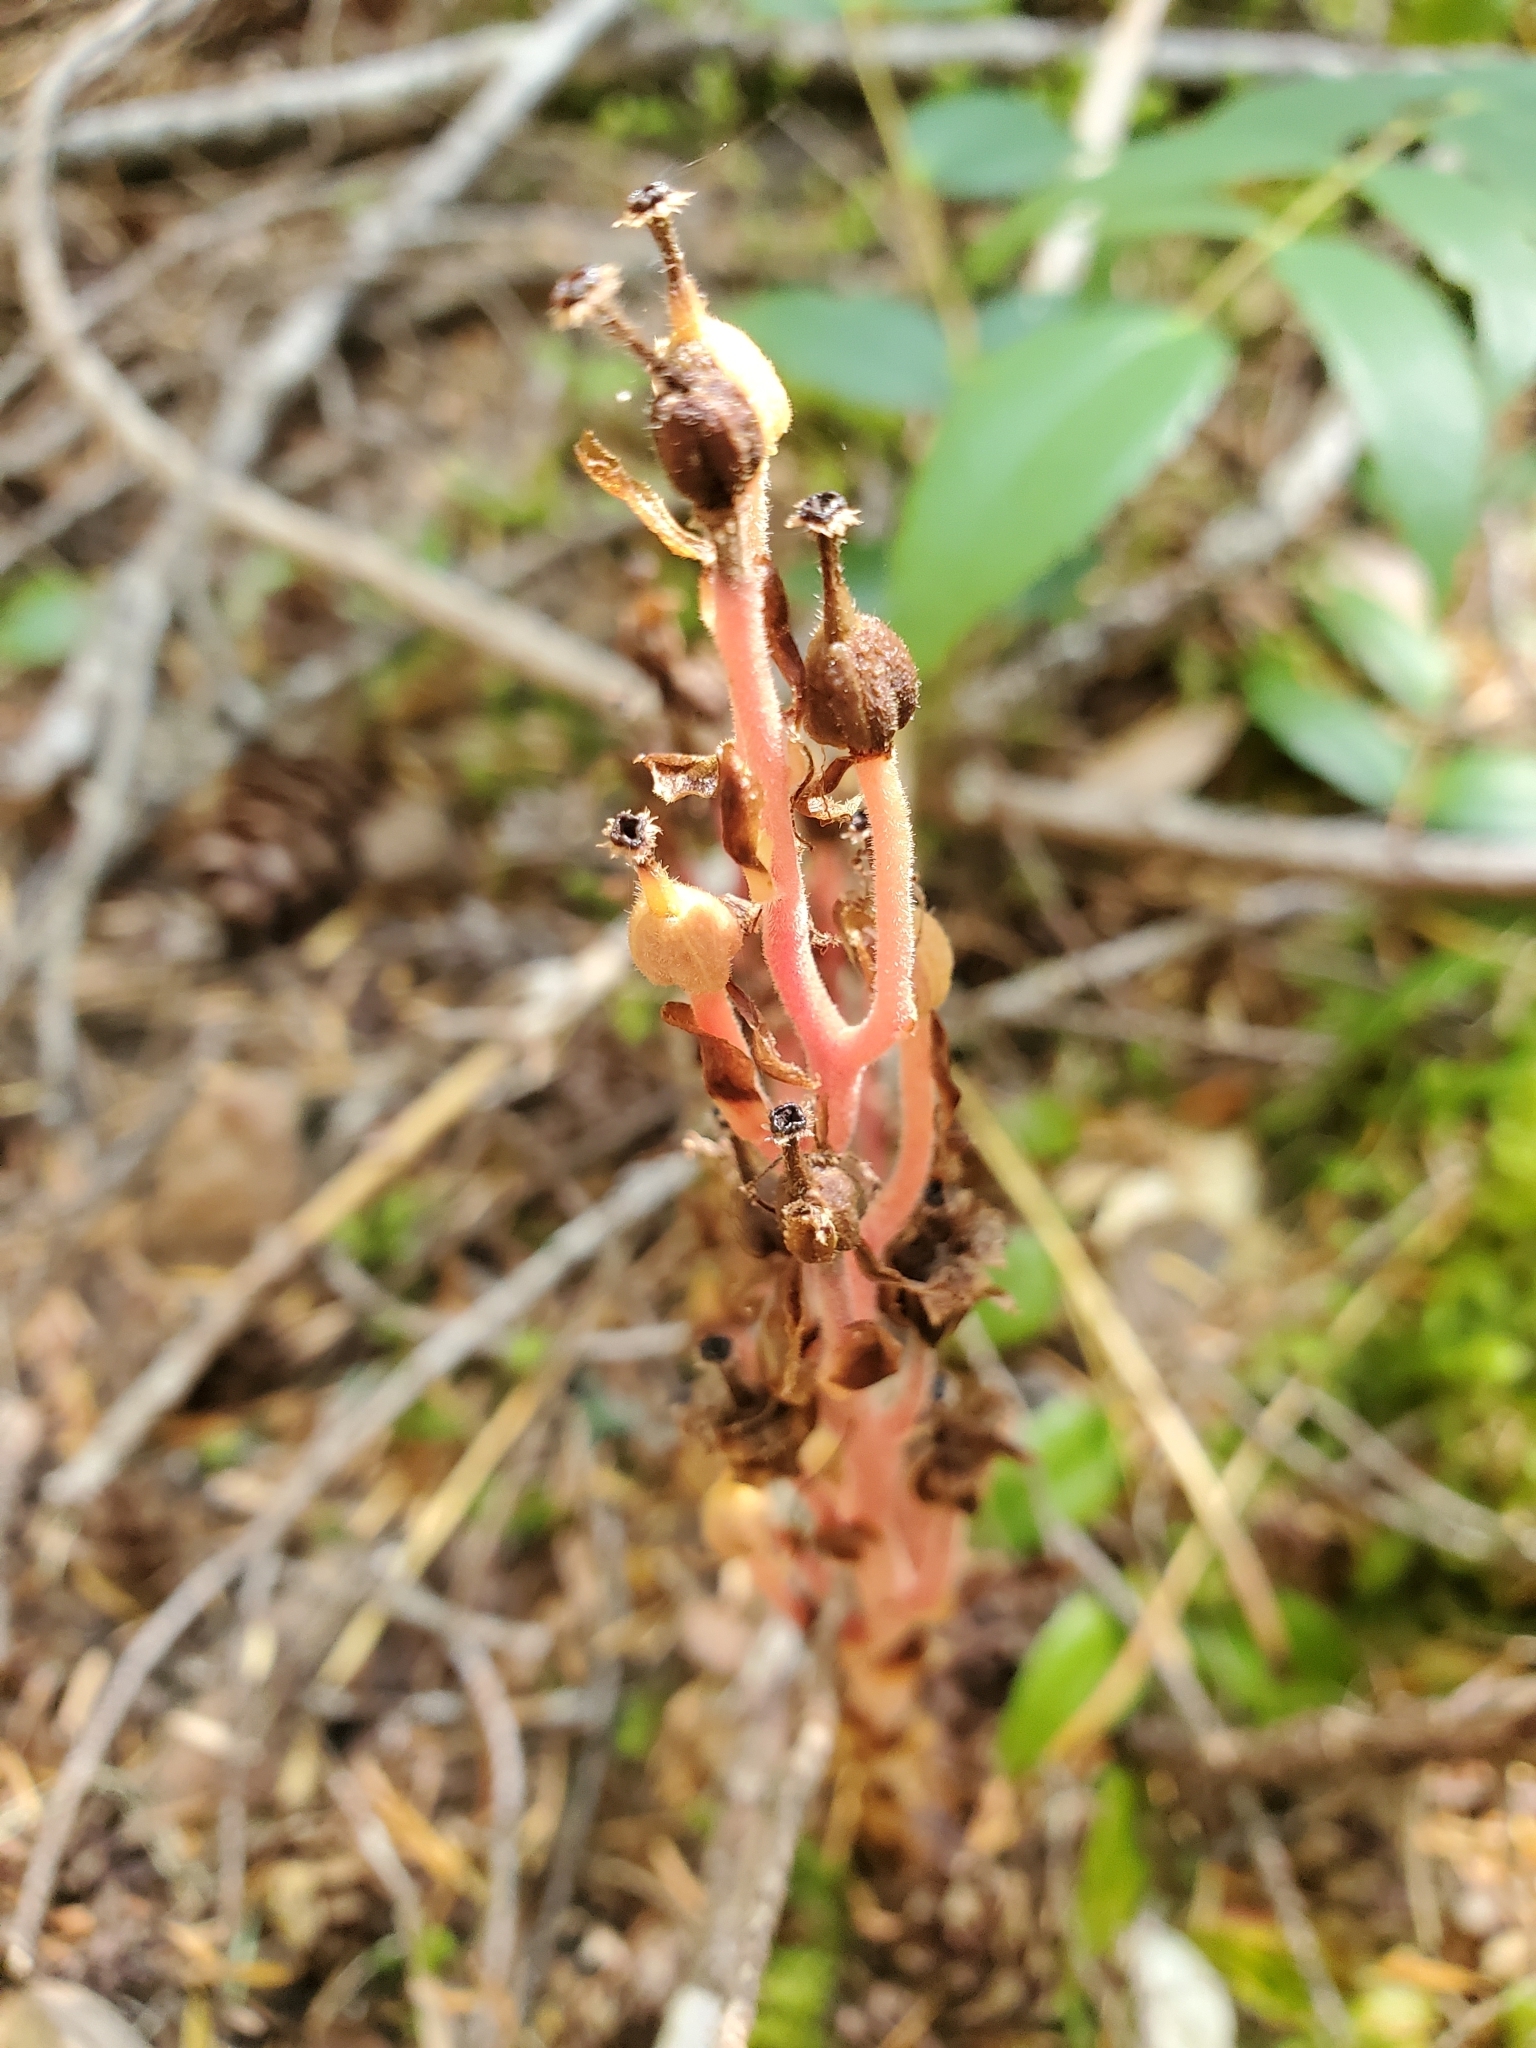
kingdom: Plantae
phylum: Tracheophyta
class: Magnoliopsida
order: Ericales
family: Ericaceae
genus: Hypopitys
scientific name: Hypopitys monotropa
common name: Yellow bird's-nest
